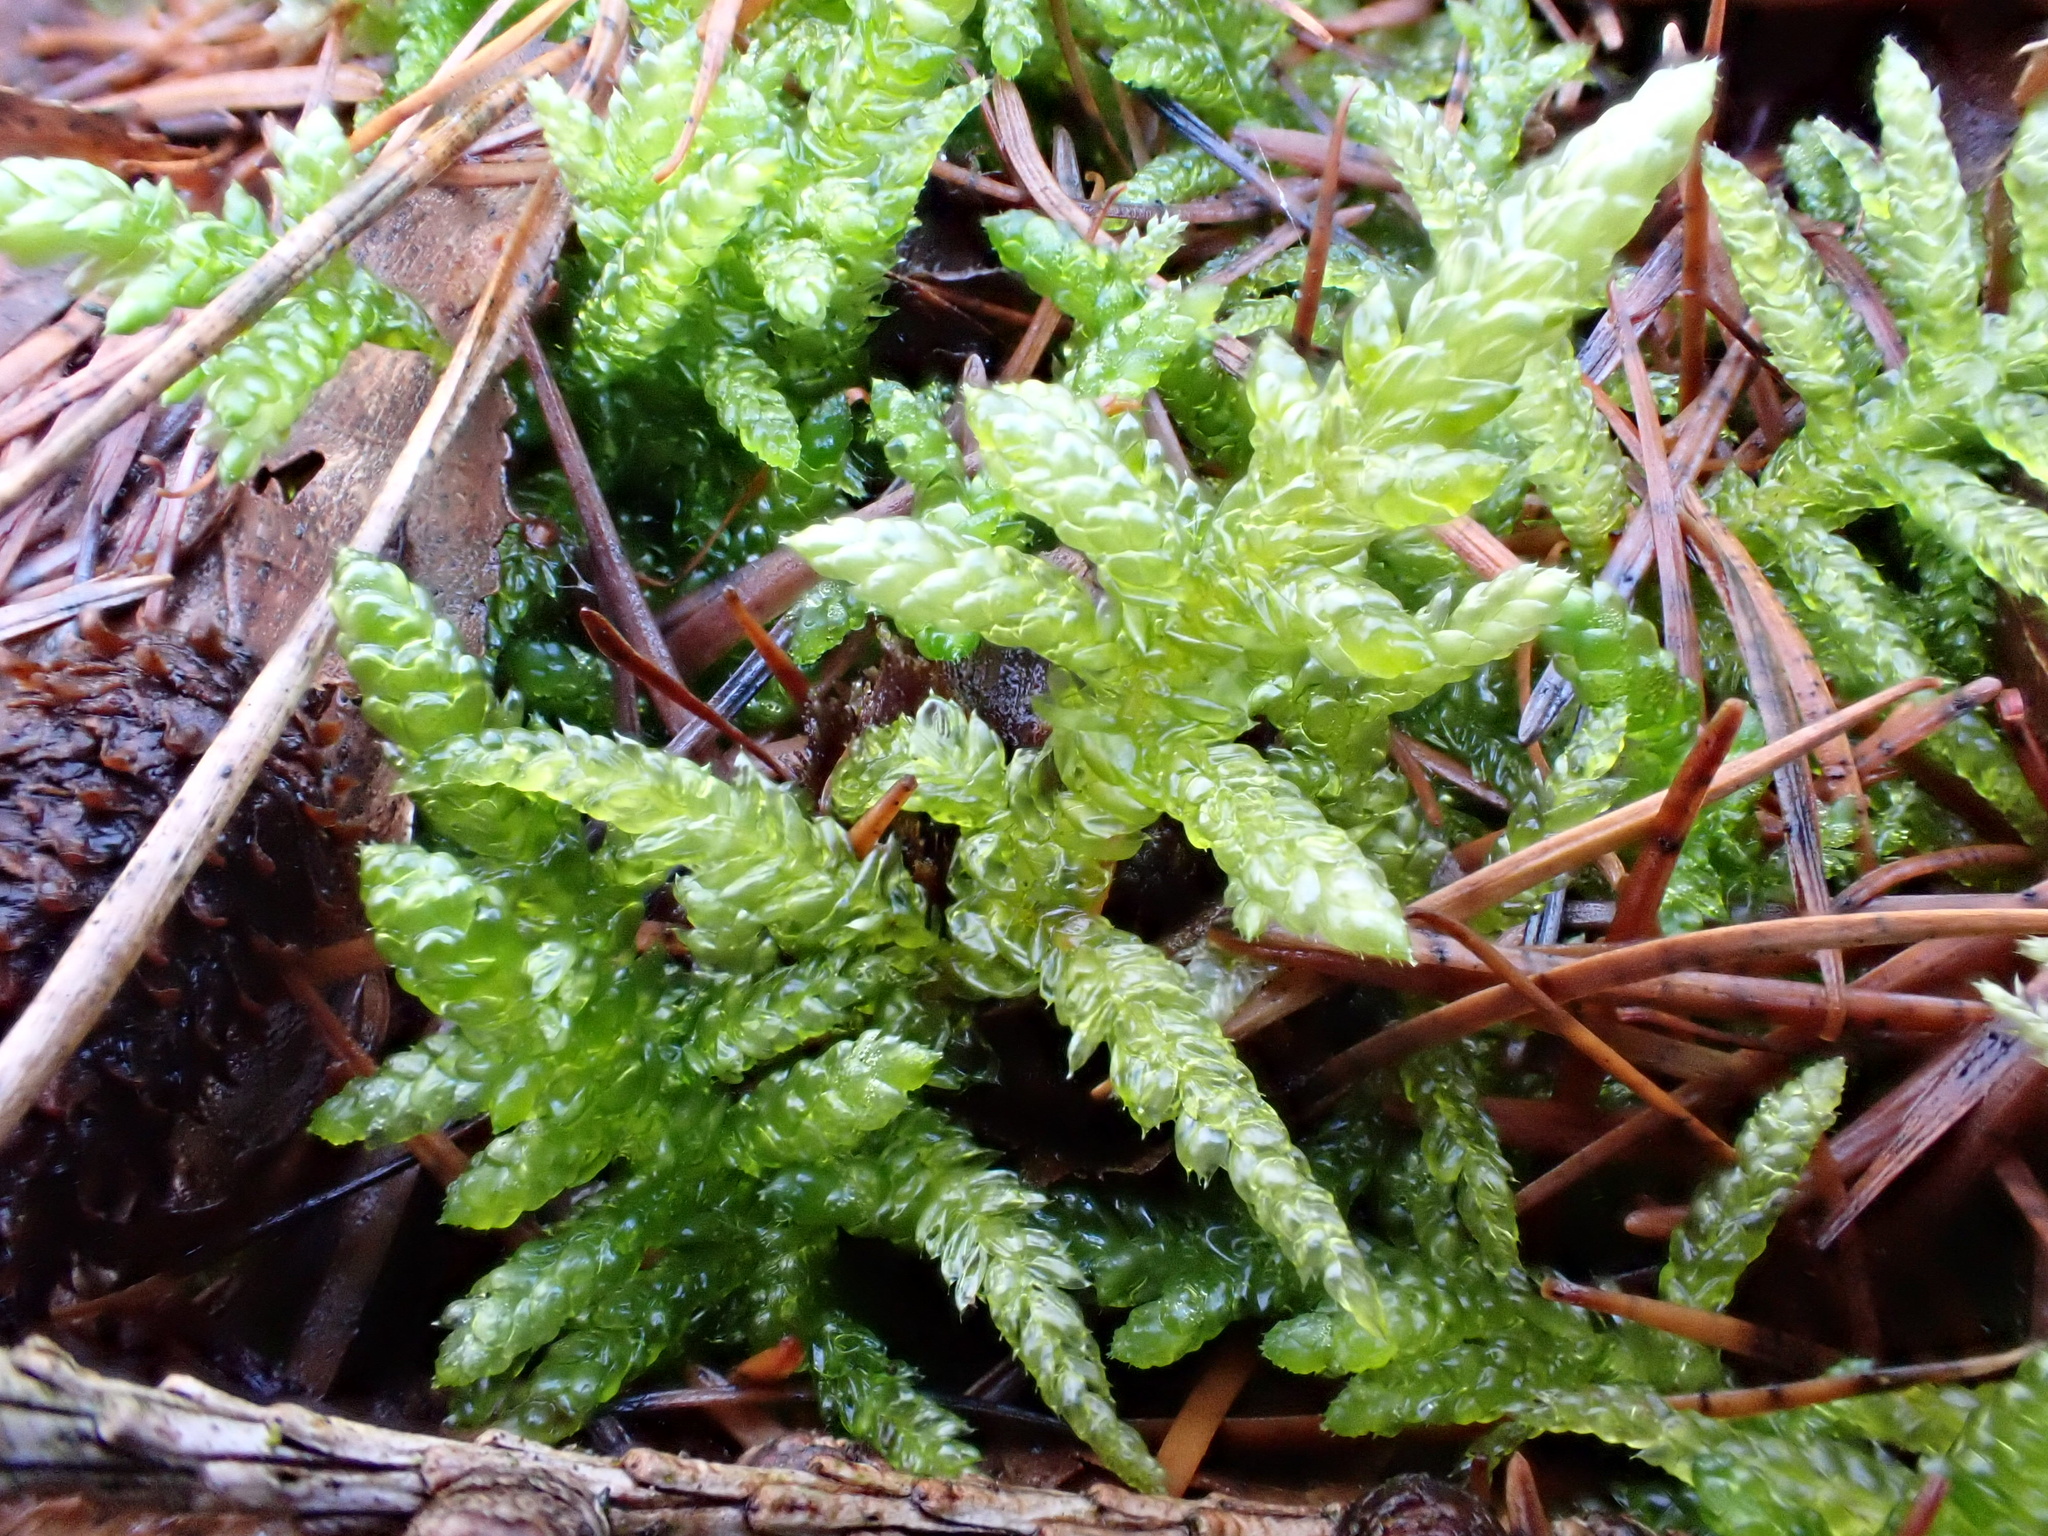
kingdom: Plantae
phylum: Bryophyta
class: Bryopsida
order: Hypnales
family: Brachytheciaceae
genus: Pseudoscleropodium
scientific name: Pseudoscleropodium purum
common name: Neat feather-moss
